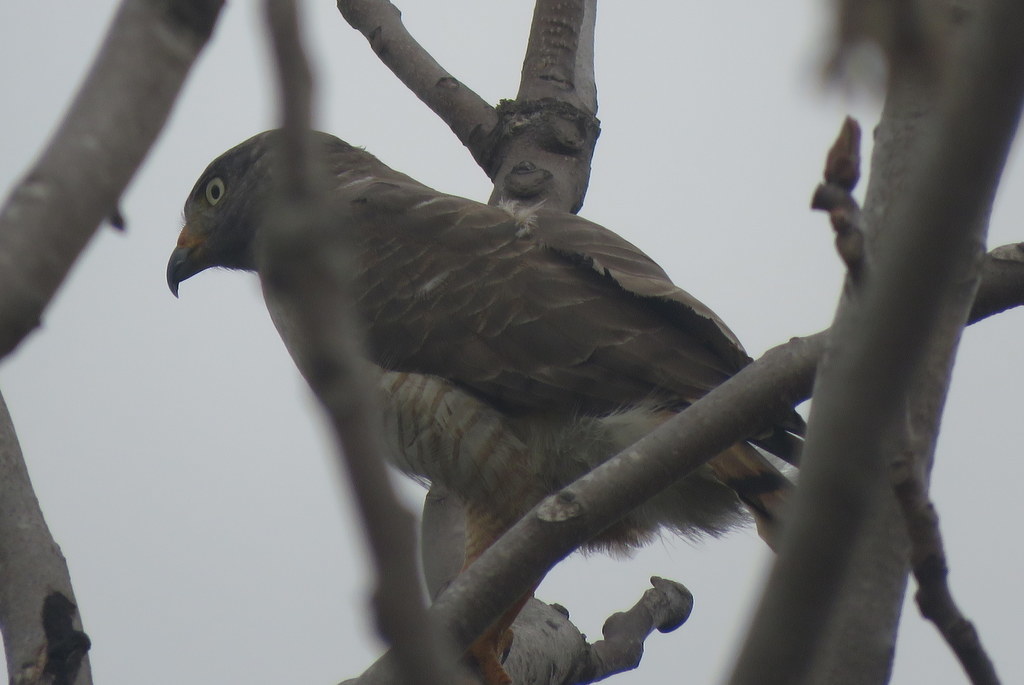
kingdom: Animalia
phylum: Chordata
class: Aves
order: Accipitriformes
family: Accipitridae
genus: Rupornis
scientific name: Rupornis magnirostris
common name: Roadside hawk
